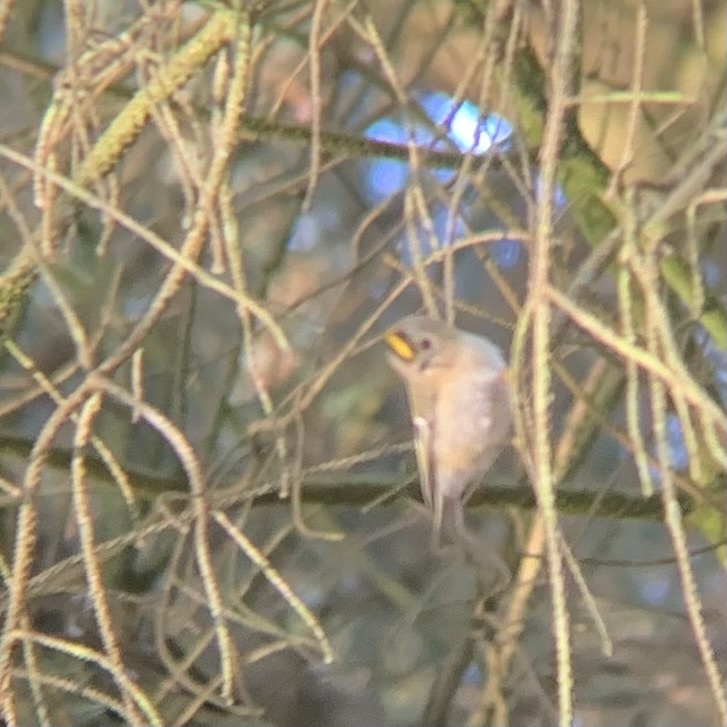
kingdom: Animalia
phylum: Chordata
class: Aves
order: Passeriformes
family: Regulidae
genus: Regulus
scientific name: Regulus regulus
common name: Goldcrest
